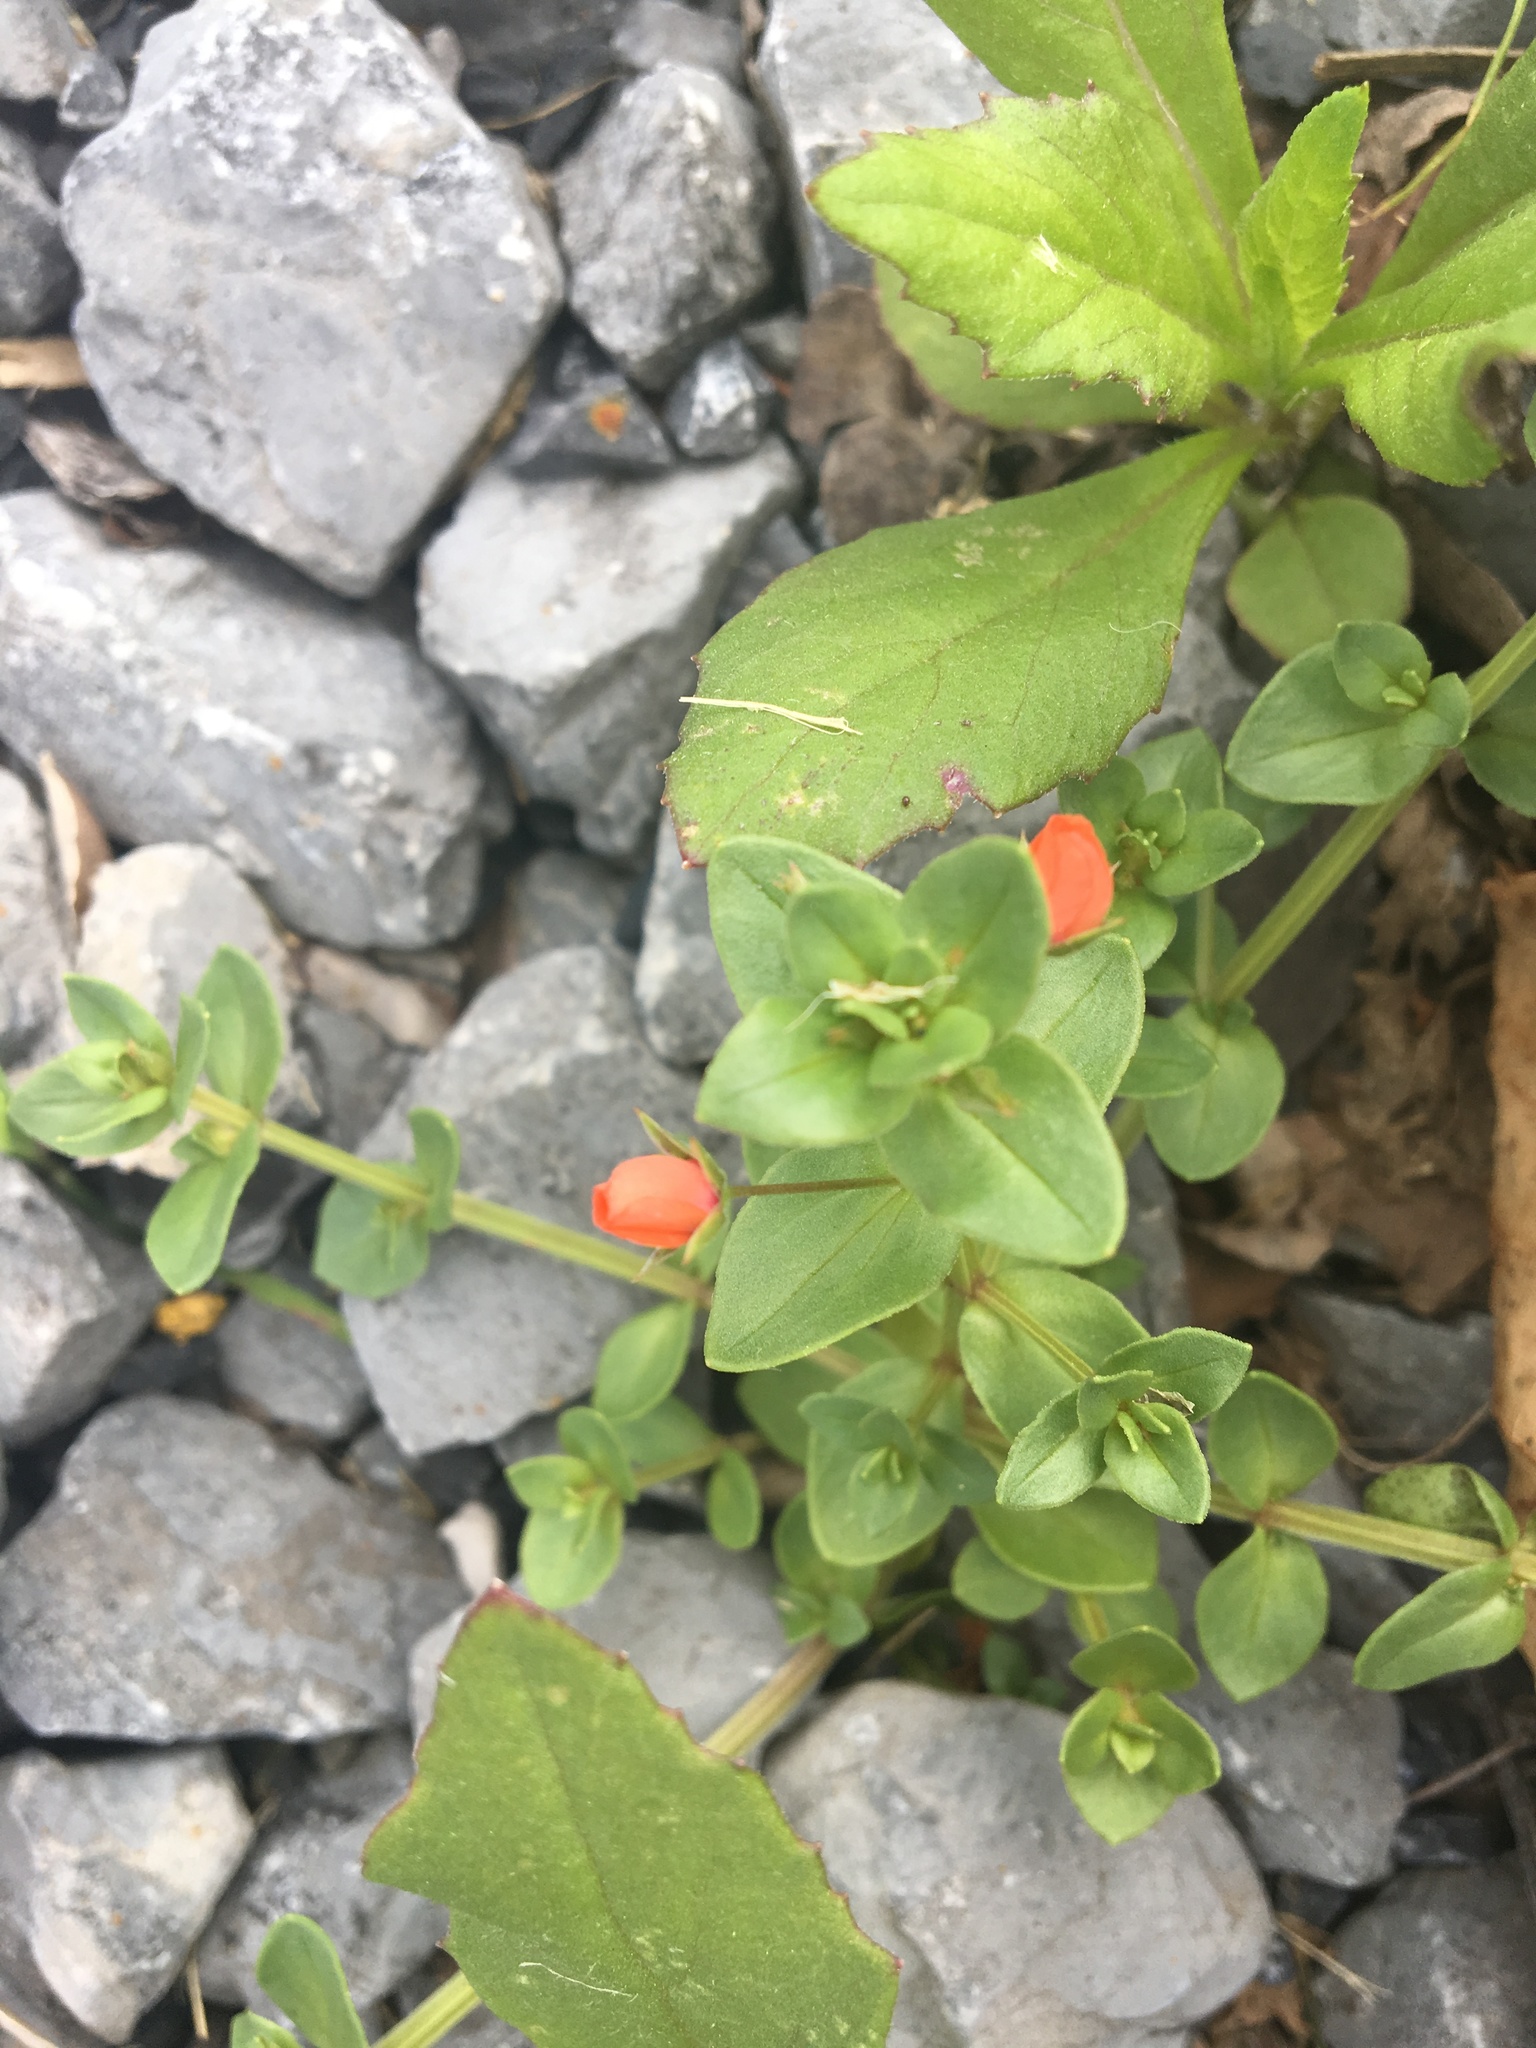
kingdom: Plantae
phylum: Tracheophyta
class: Magnoliopsida
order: Ericales
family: Primulaceae
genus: Lysimachia
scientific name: Lysimachia arvensis
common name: Scarlet pimpernel
